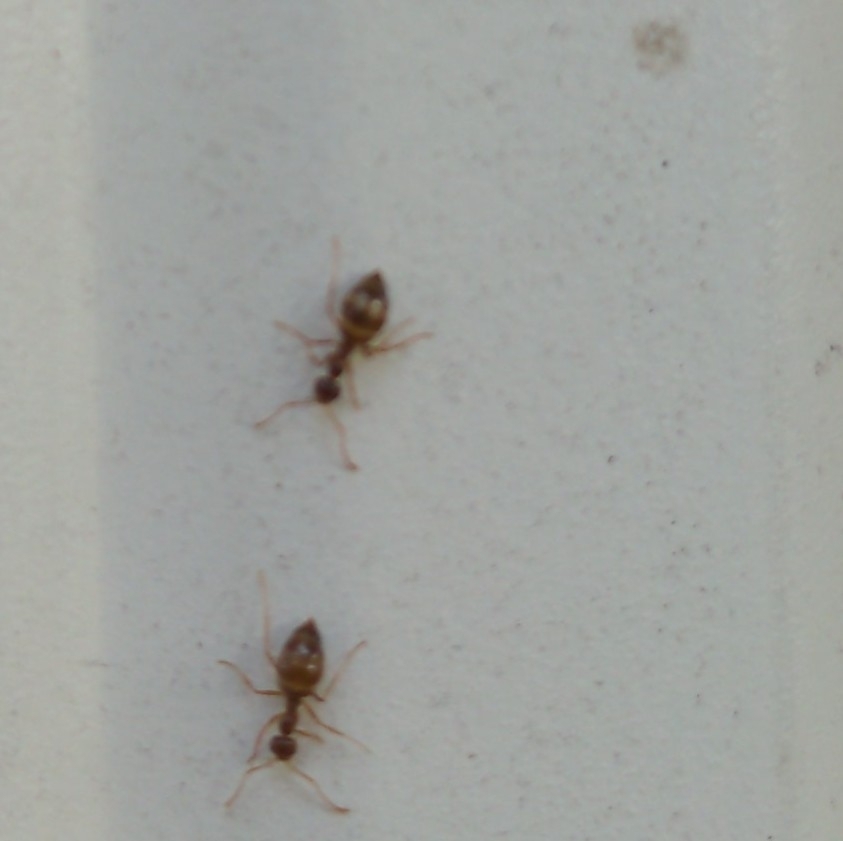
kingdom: Animalia
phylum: Arthropoda
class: Insecta
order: Hymenoptera
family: Formicidae
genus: Prenolepis
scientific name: Prenolepis imparis
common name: Small honey ant
